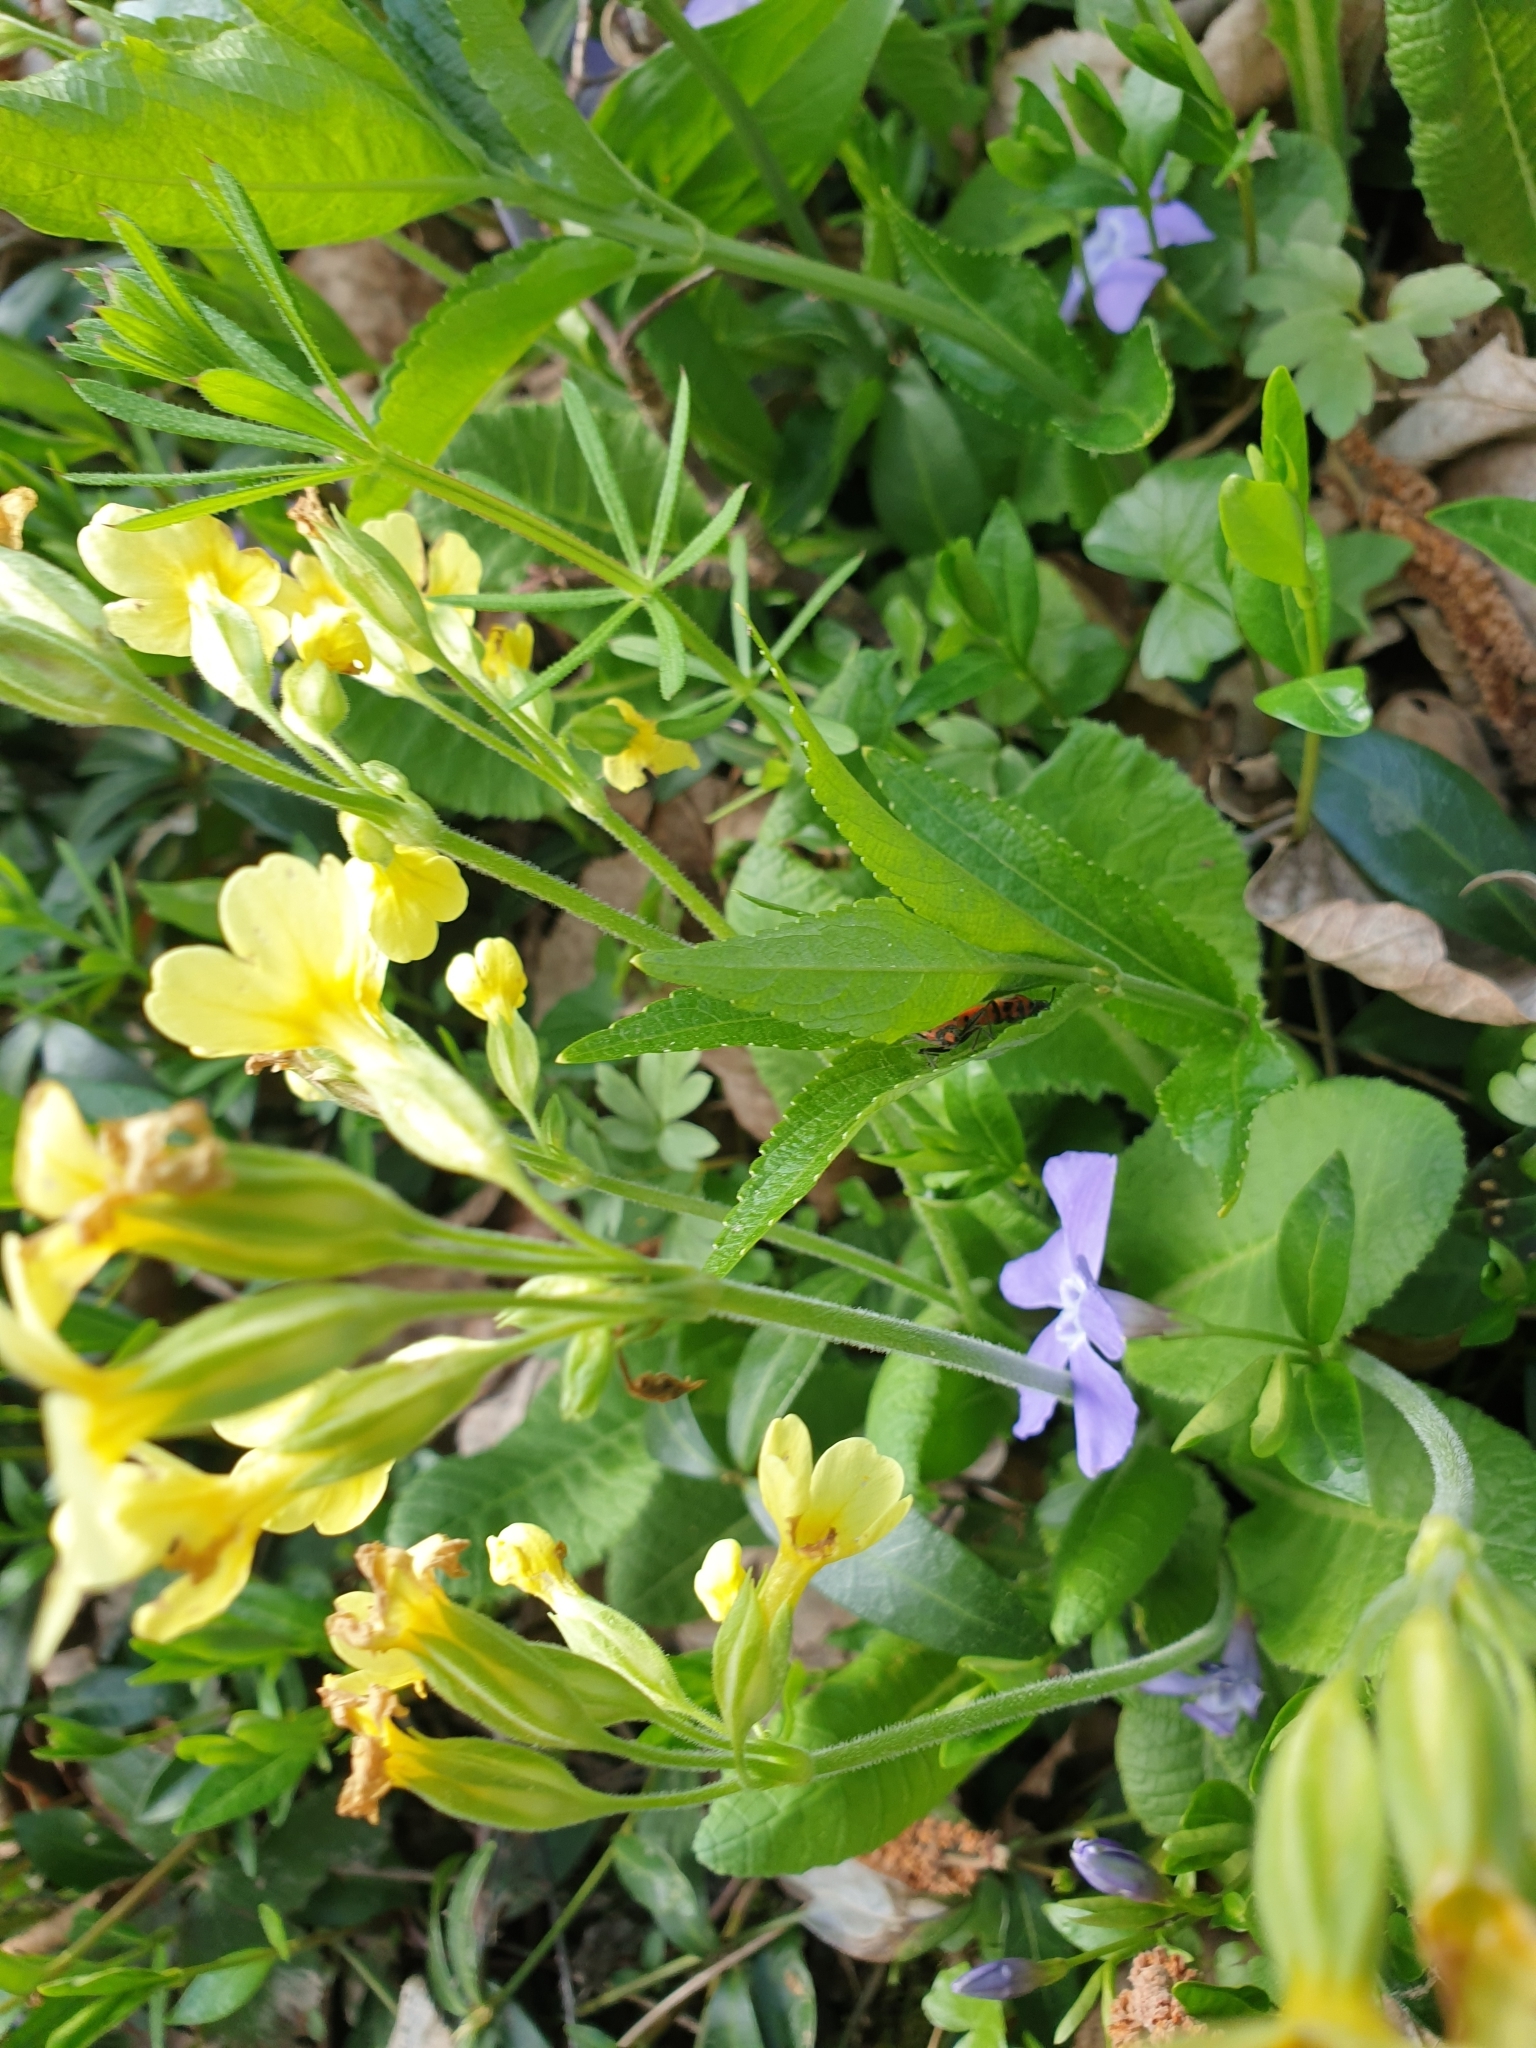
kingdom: Plantae
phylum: Tracheophyta
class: Magnoliopsida
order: Ericales
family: Primulaceae
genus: Primula
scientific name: Primula elatior
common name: Oxlip
